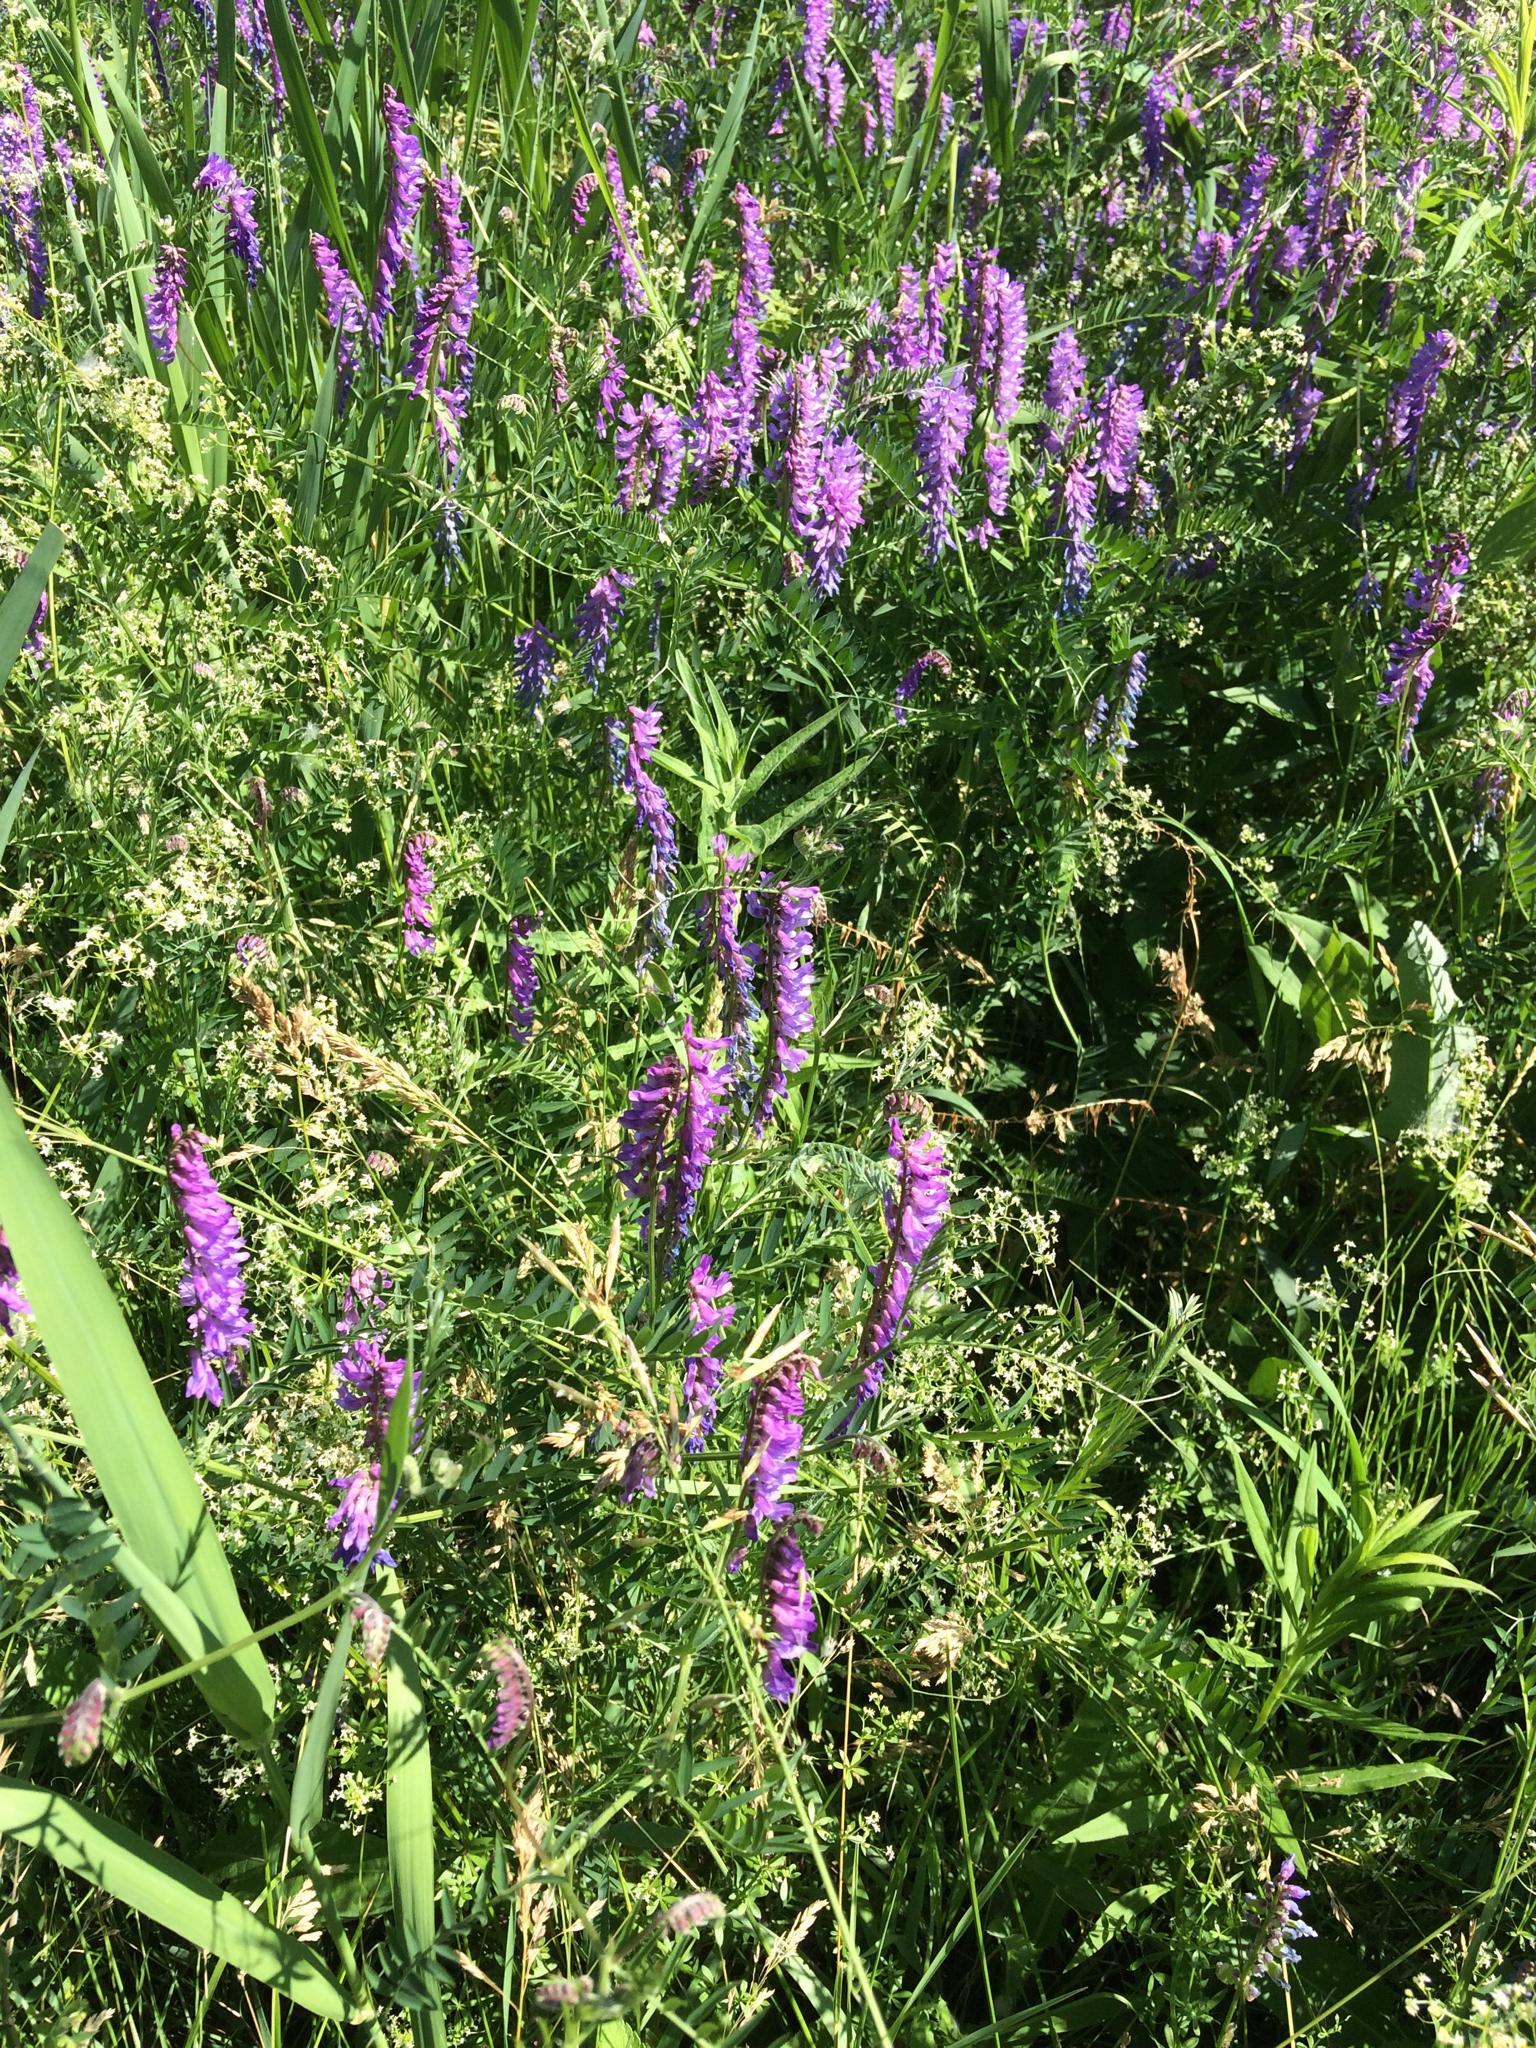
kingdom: Plantae
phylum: Tracheophyta
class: Magnoliopsida
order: Fabales
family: Fabaceae
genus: Vicia
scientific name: Vicia cracca
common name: Bird vetch
